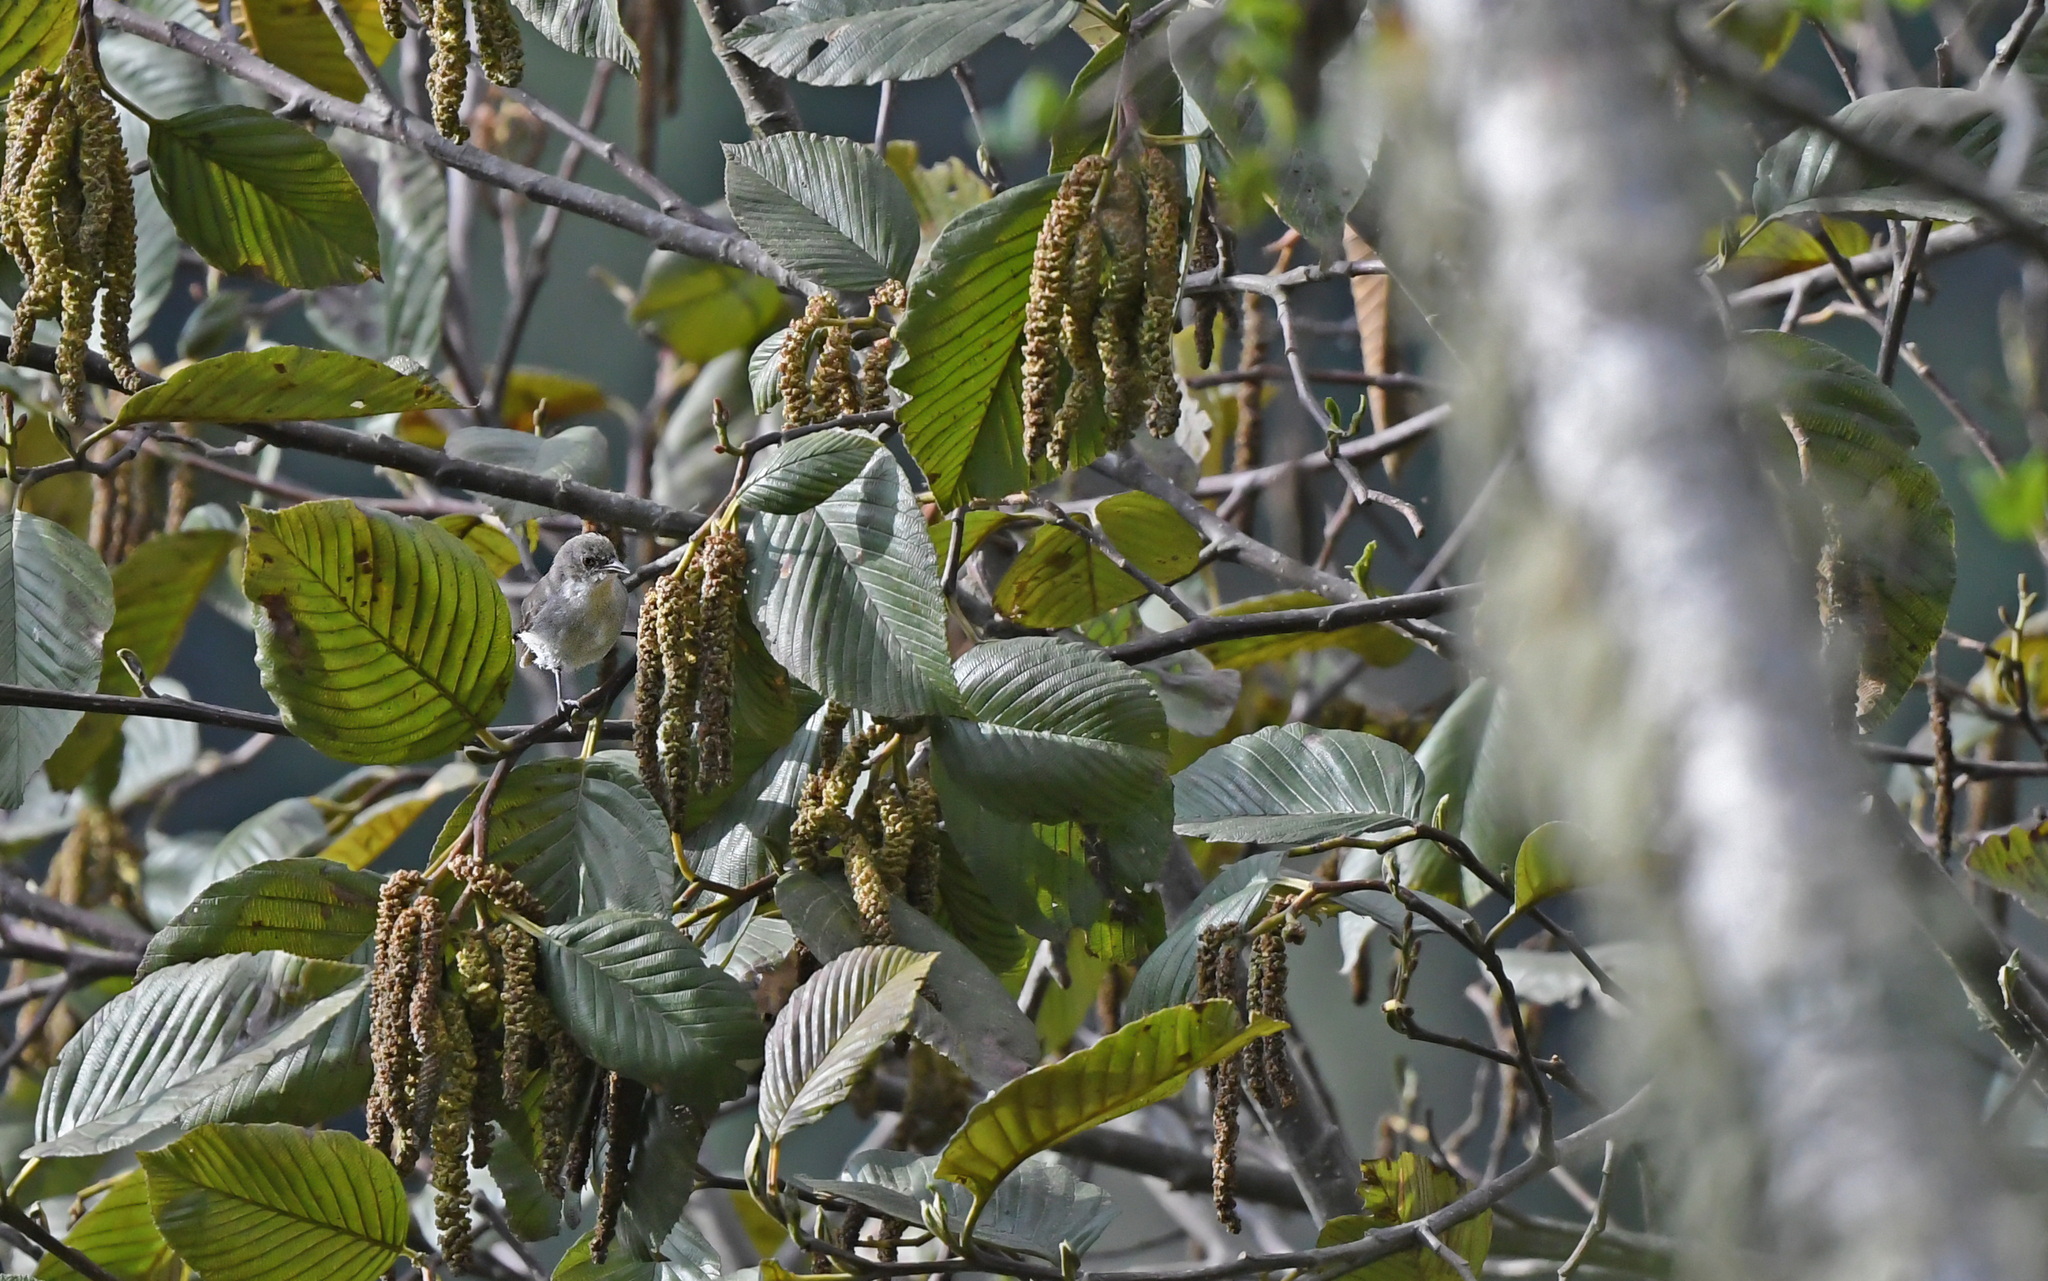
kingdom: Animalia
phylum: Chordata
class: Aves
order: Passeriformes
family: Thraupidae
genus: Pseudospingus
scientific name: Pseudospingus xanthophthalmus
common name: Drab hemispingus
